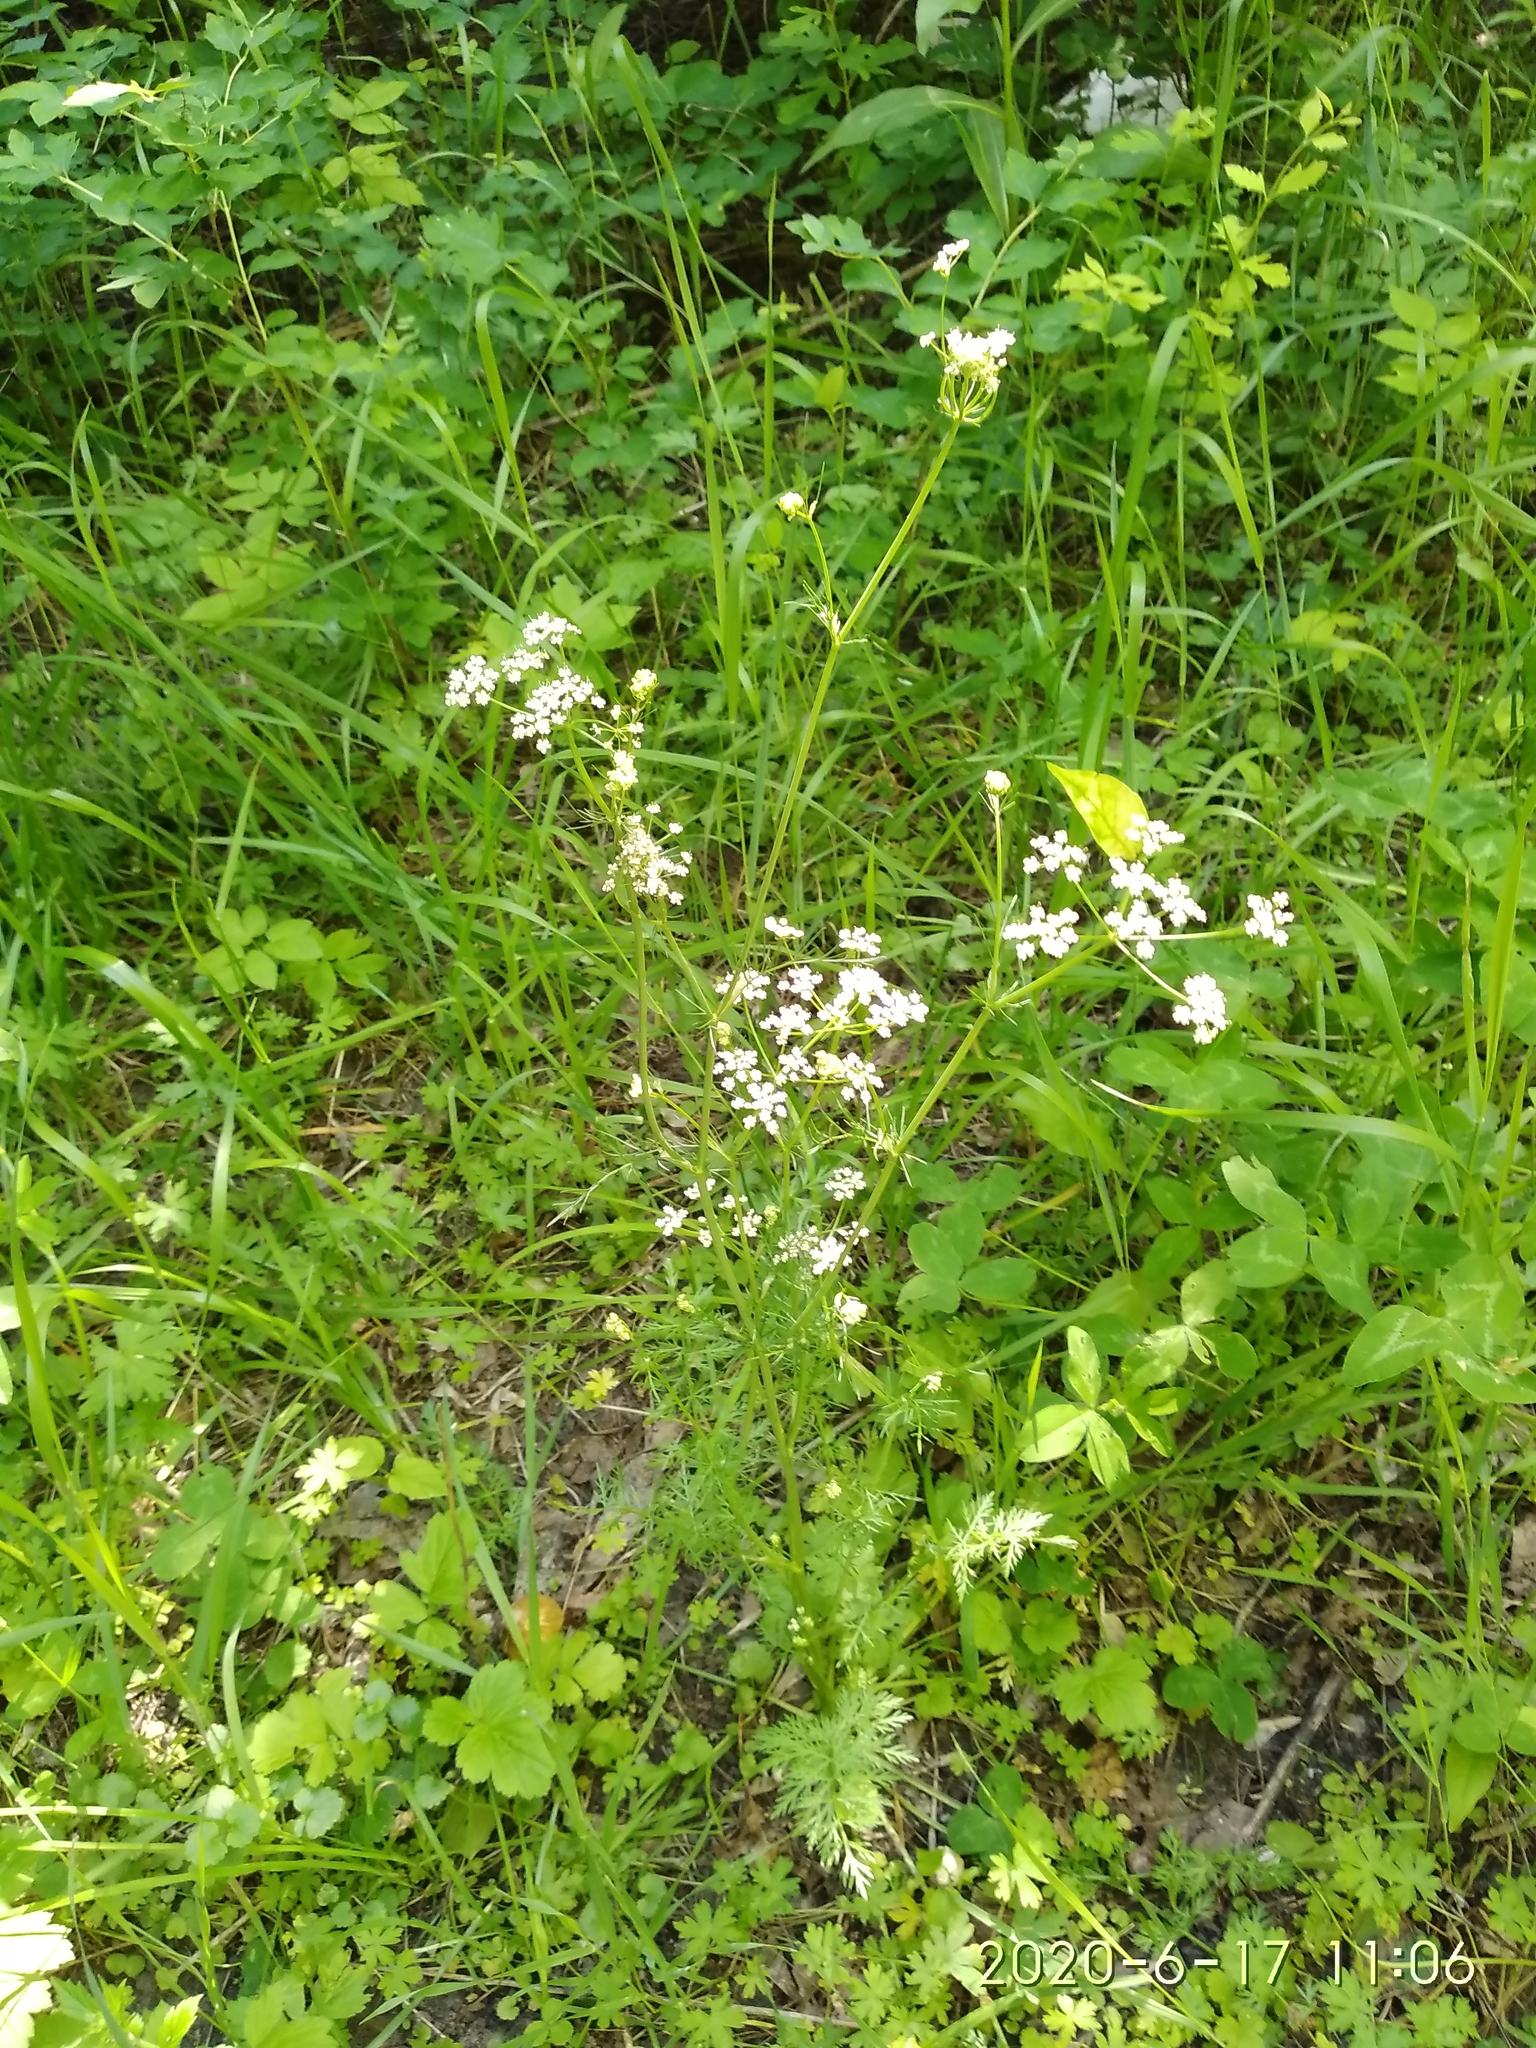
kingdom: Plantae
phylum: Tracheophyta
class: Magnoliopsida
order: Apiales
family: Apiaceae
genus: Carum
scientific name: Carum carvi
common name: Caraway
